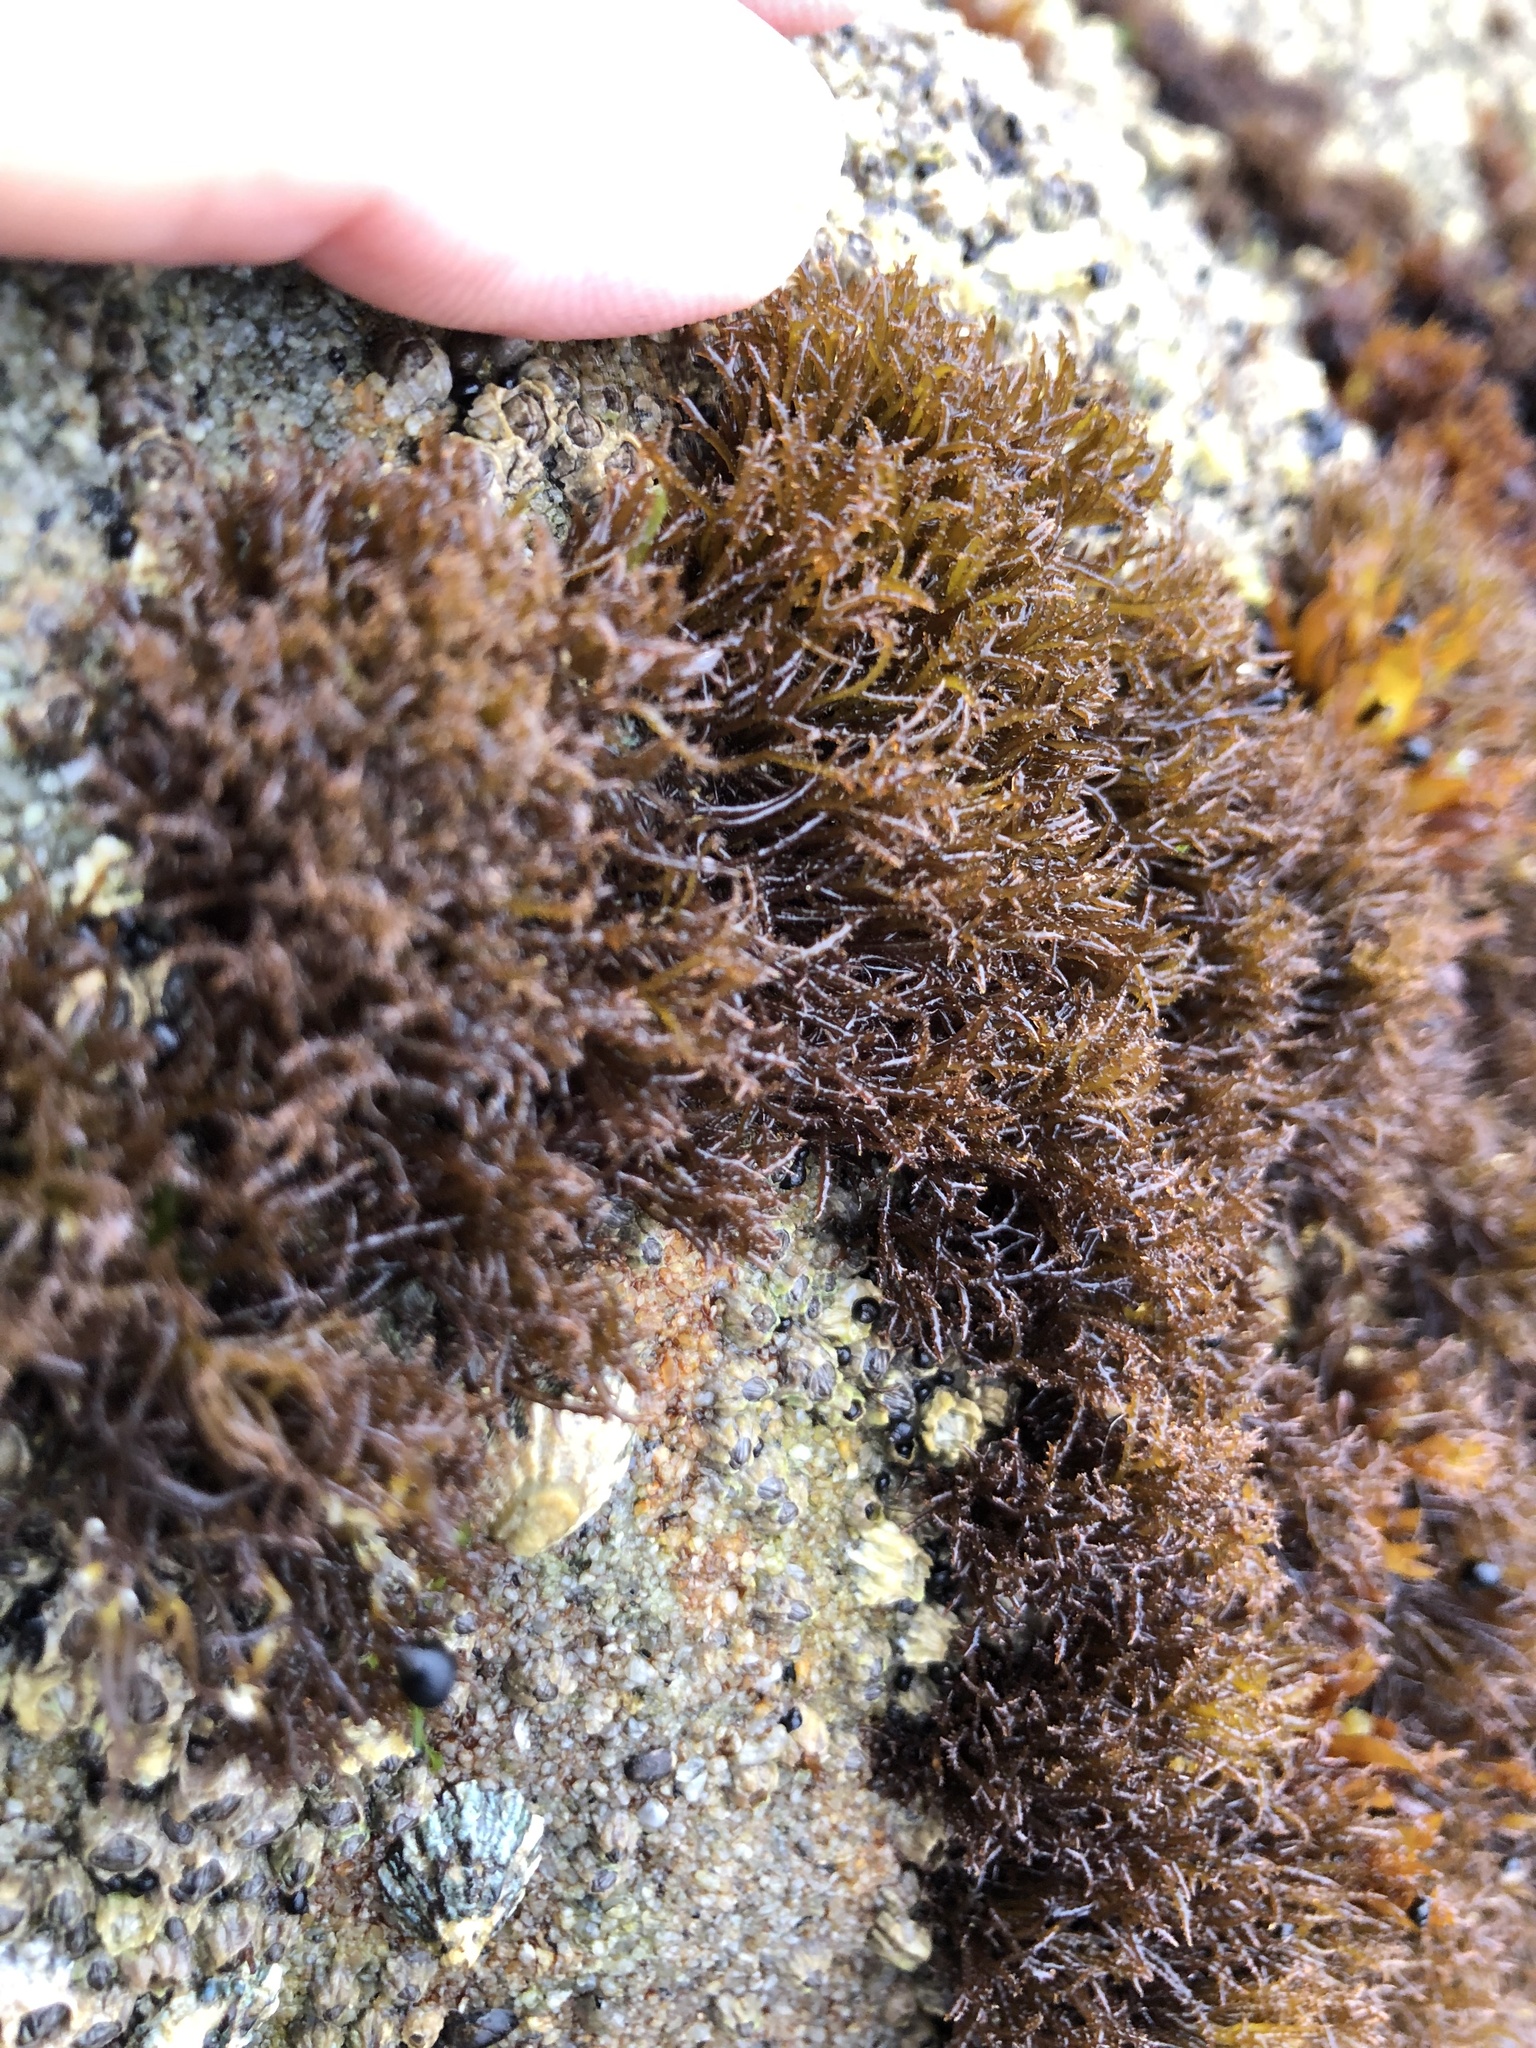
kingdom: Plantae
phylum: Rhodophyta
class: Florideophyceae
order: Gigartinales
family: Endocladiaceae
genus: Endocladia
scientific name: Endocladia muricata
